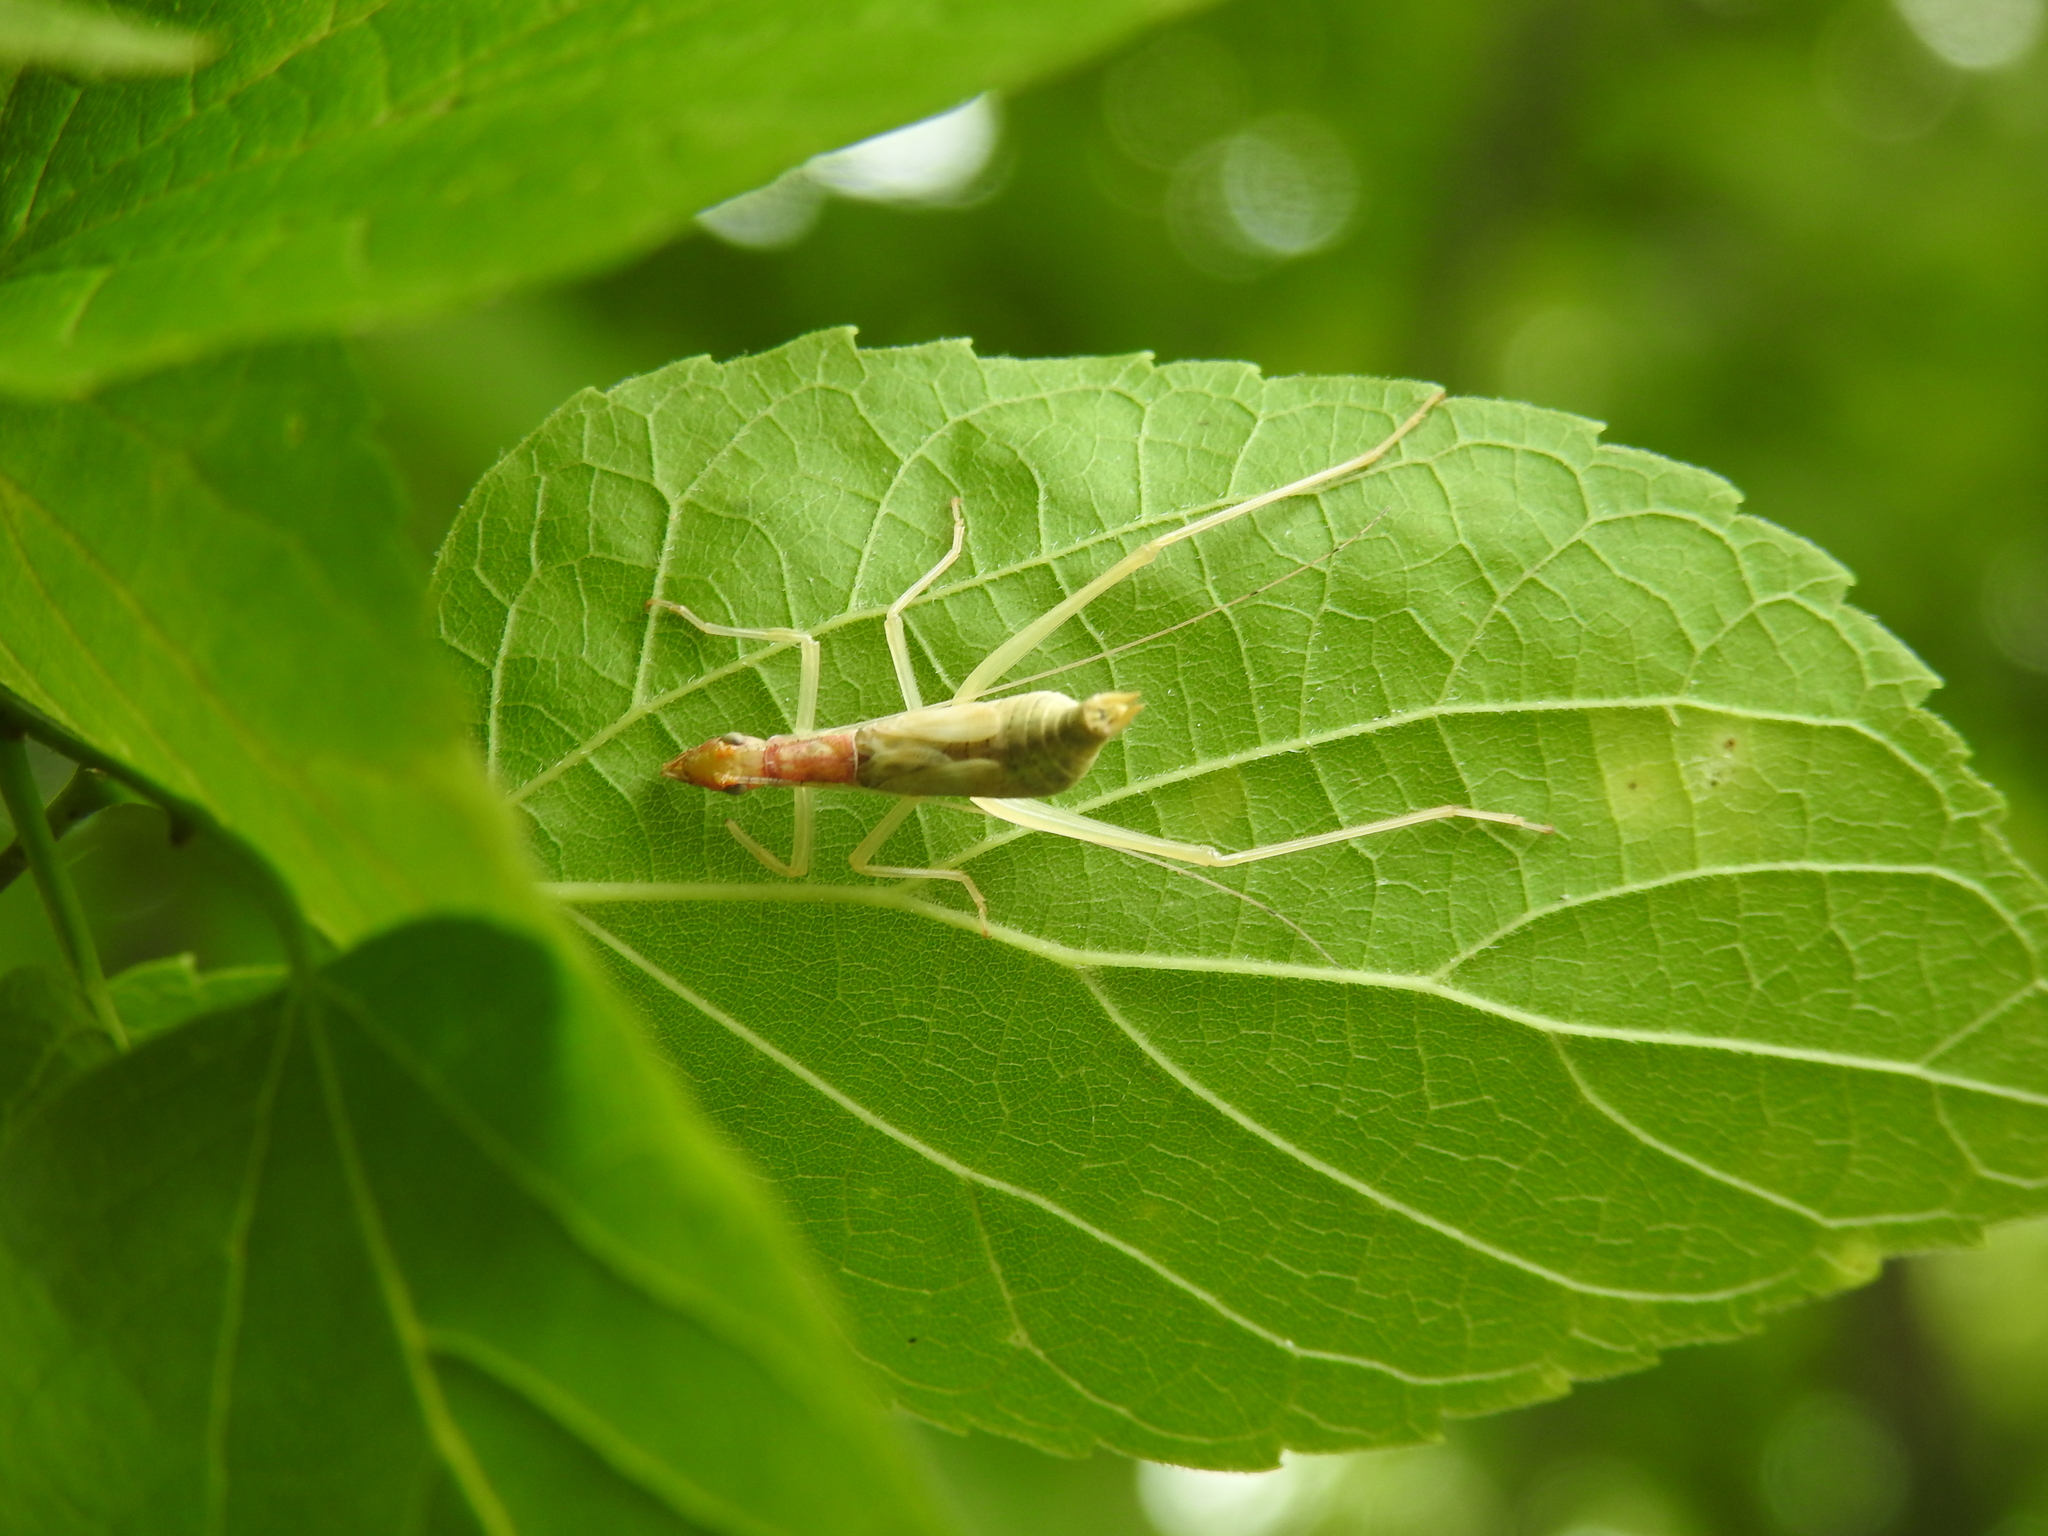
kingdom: Animalia
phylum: Arthropoda
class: Insecta
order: Orthoptera
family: Gryllidae
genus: Neoxabea
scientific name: Neoxabea bipunctata
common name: Two-spotted tree cricket
